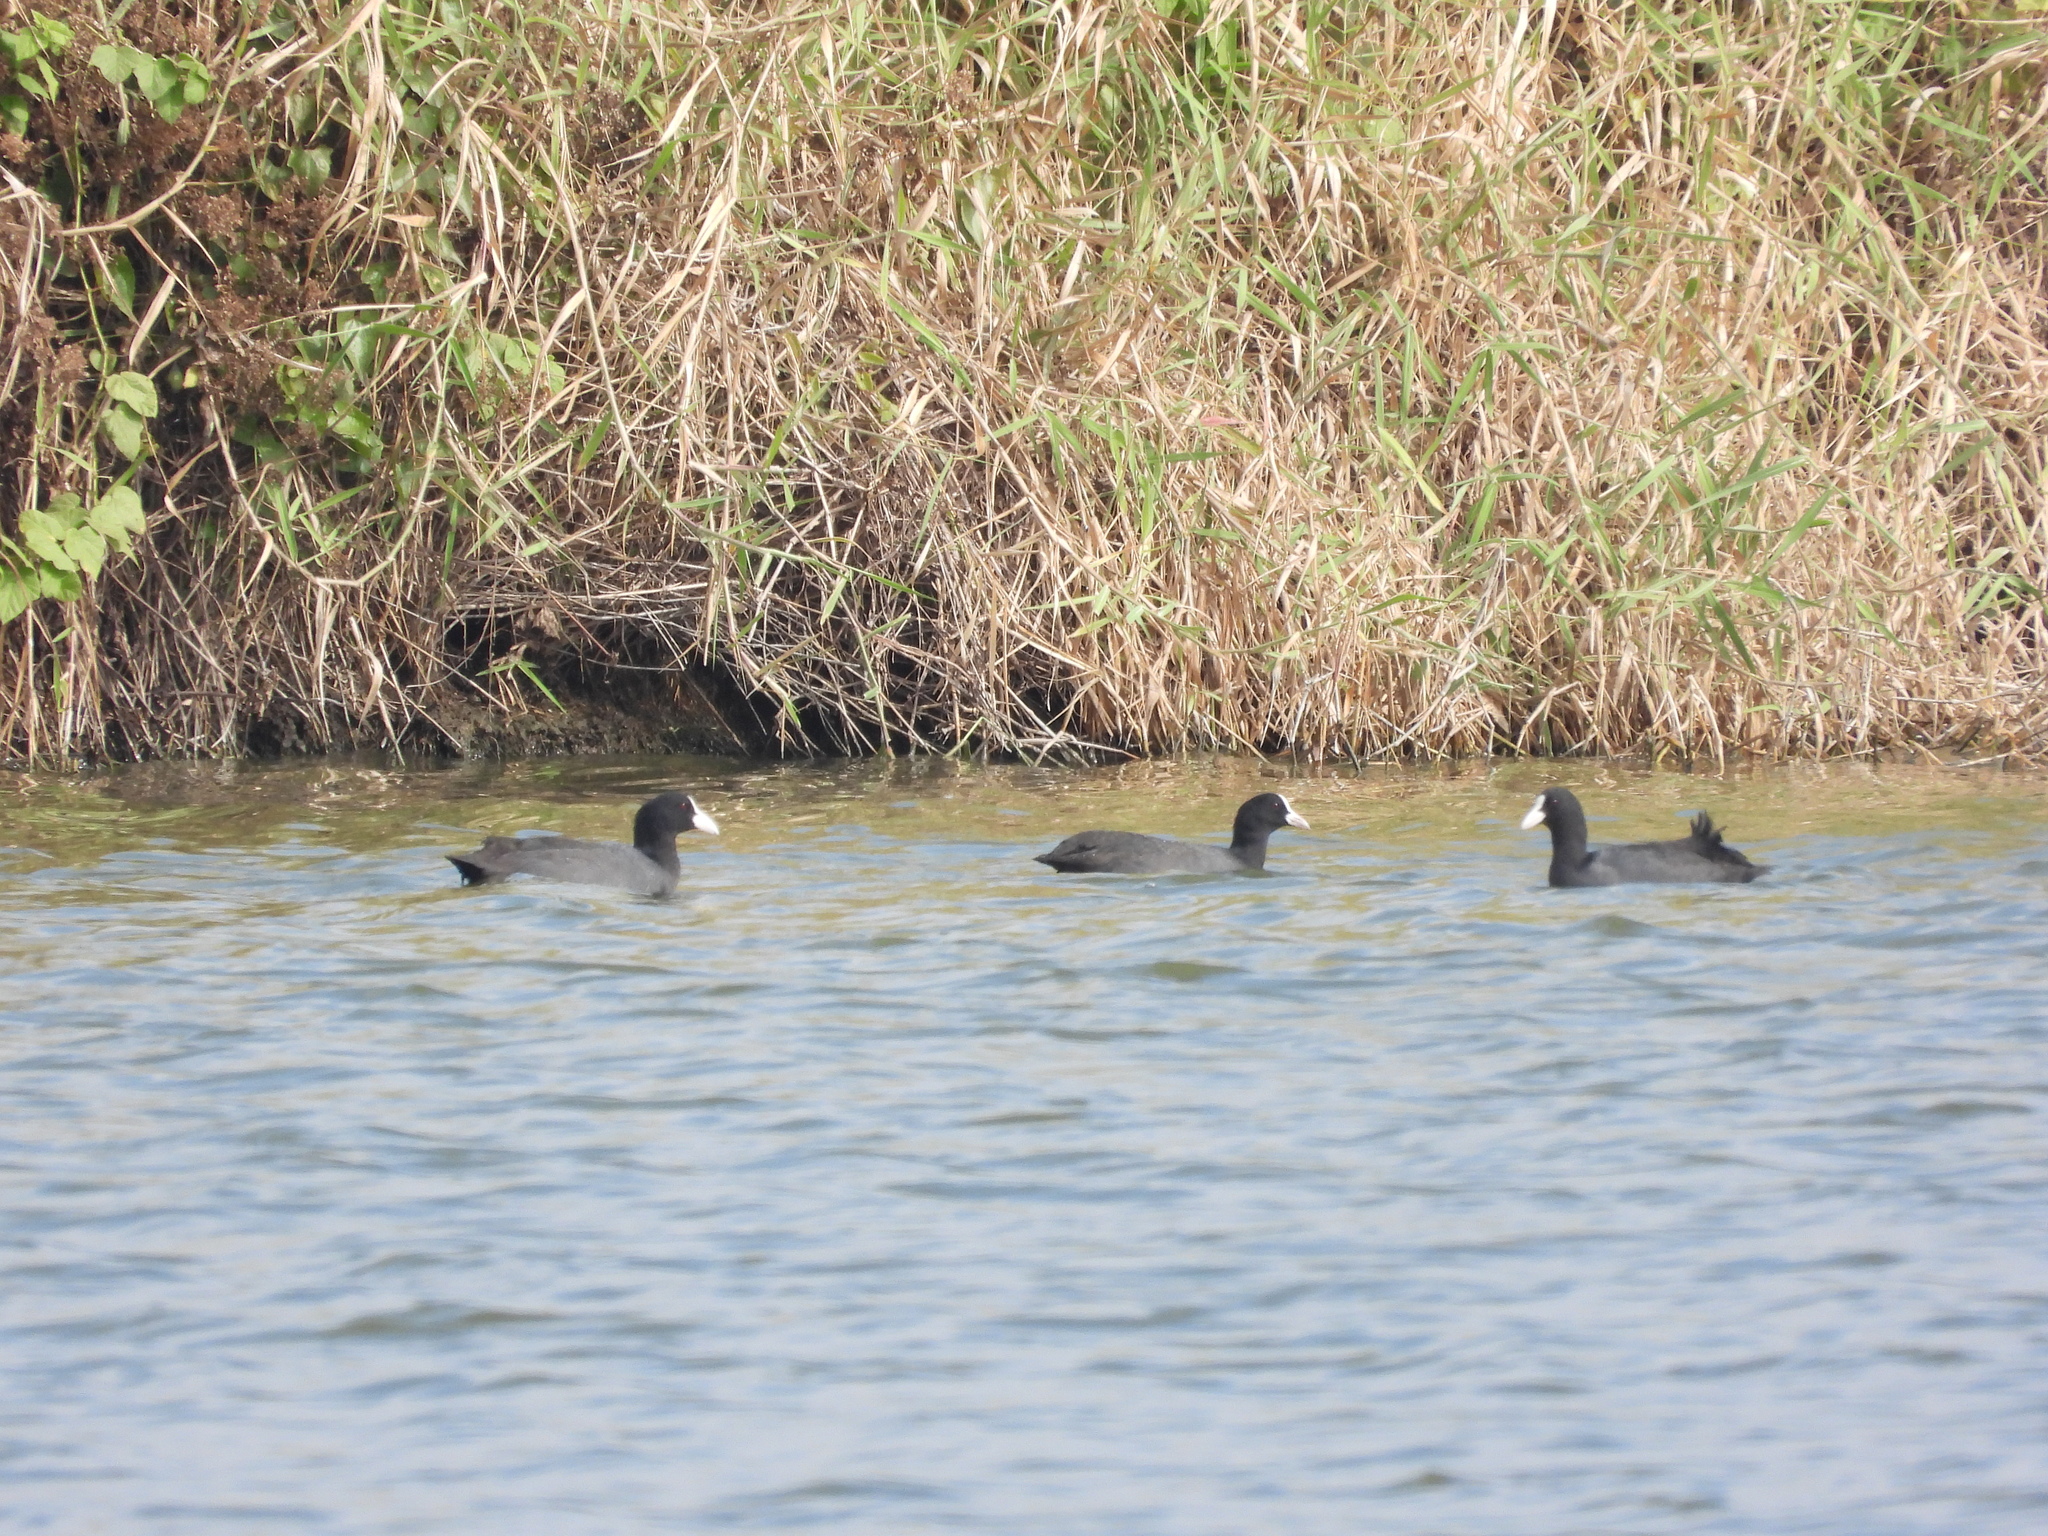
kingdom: Animalia
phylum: Chordata
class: Aves
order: Gruiformes
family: Rallidae
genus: Fulica
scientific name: Fulica atra
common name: Eurasian coot
